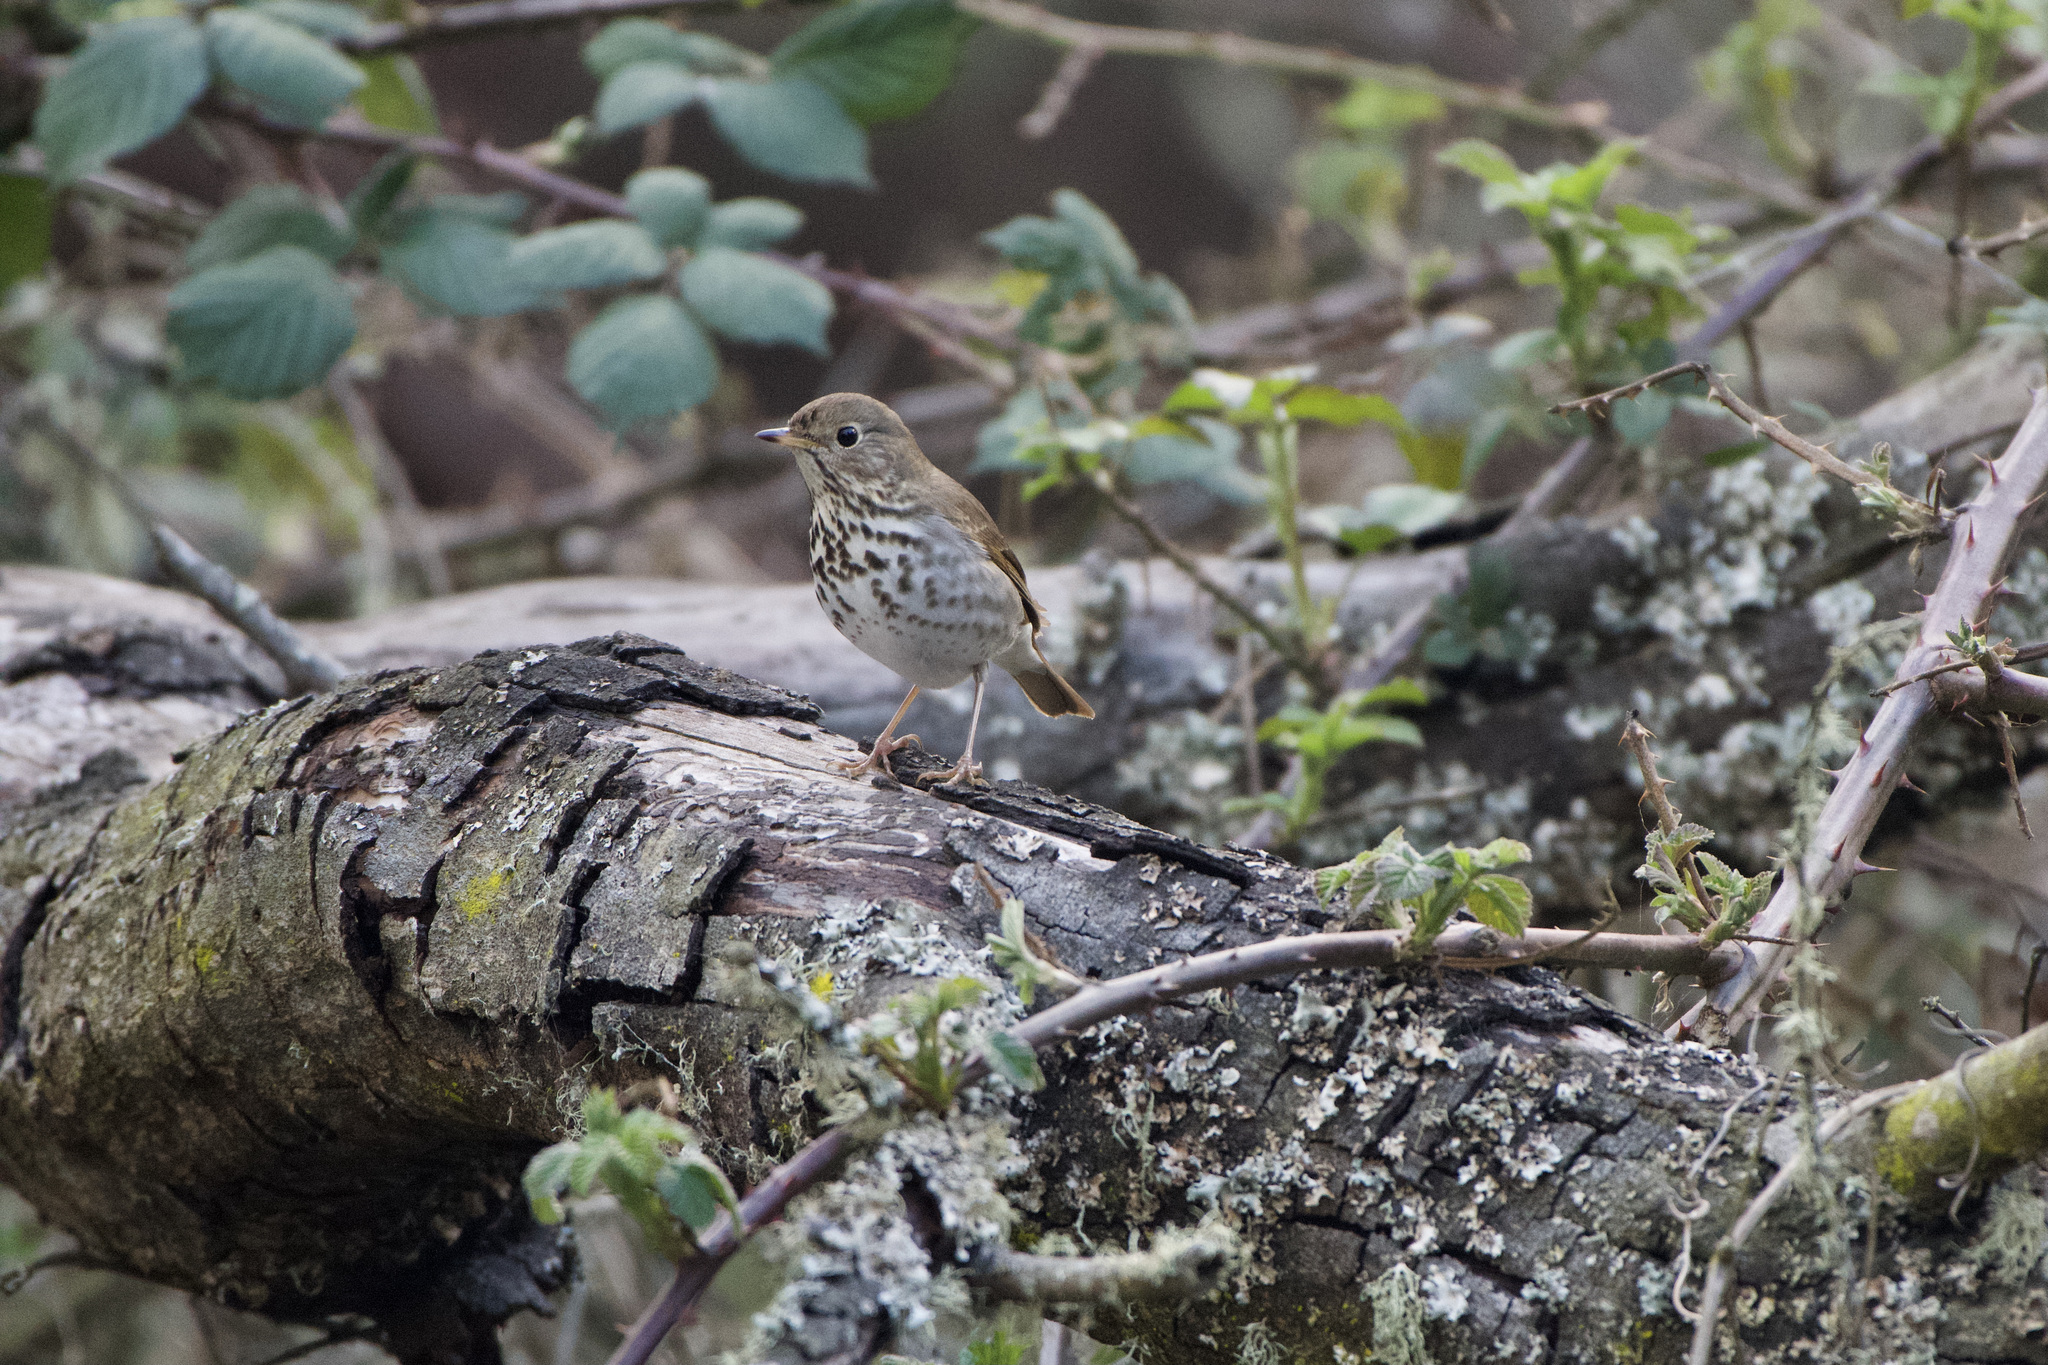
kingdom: Animalia
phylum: Chordata
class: Aves
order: Passeriformes
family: Turdidae
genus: Catharus
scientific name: Catharus guttatus
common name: Hermit thrush
